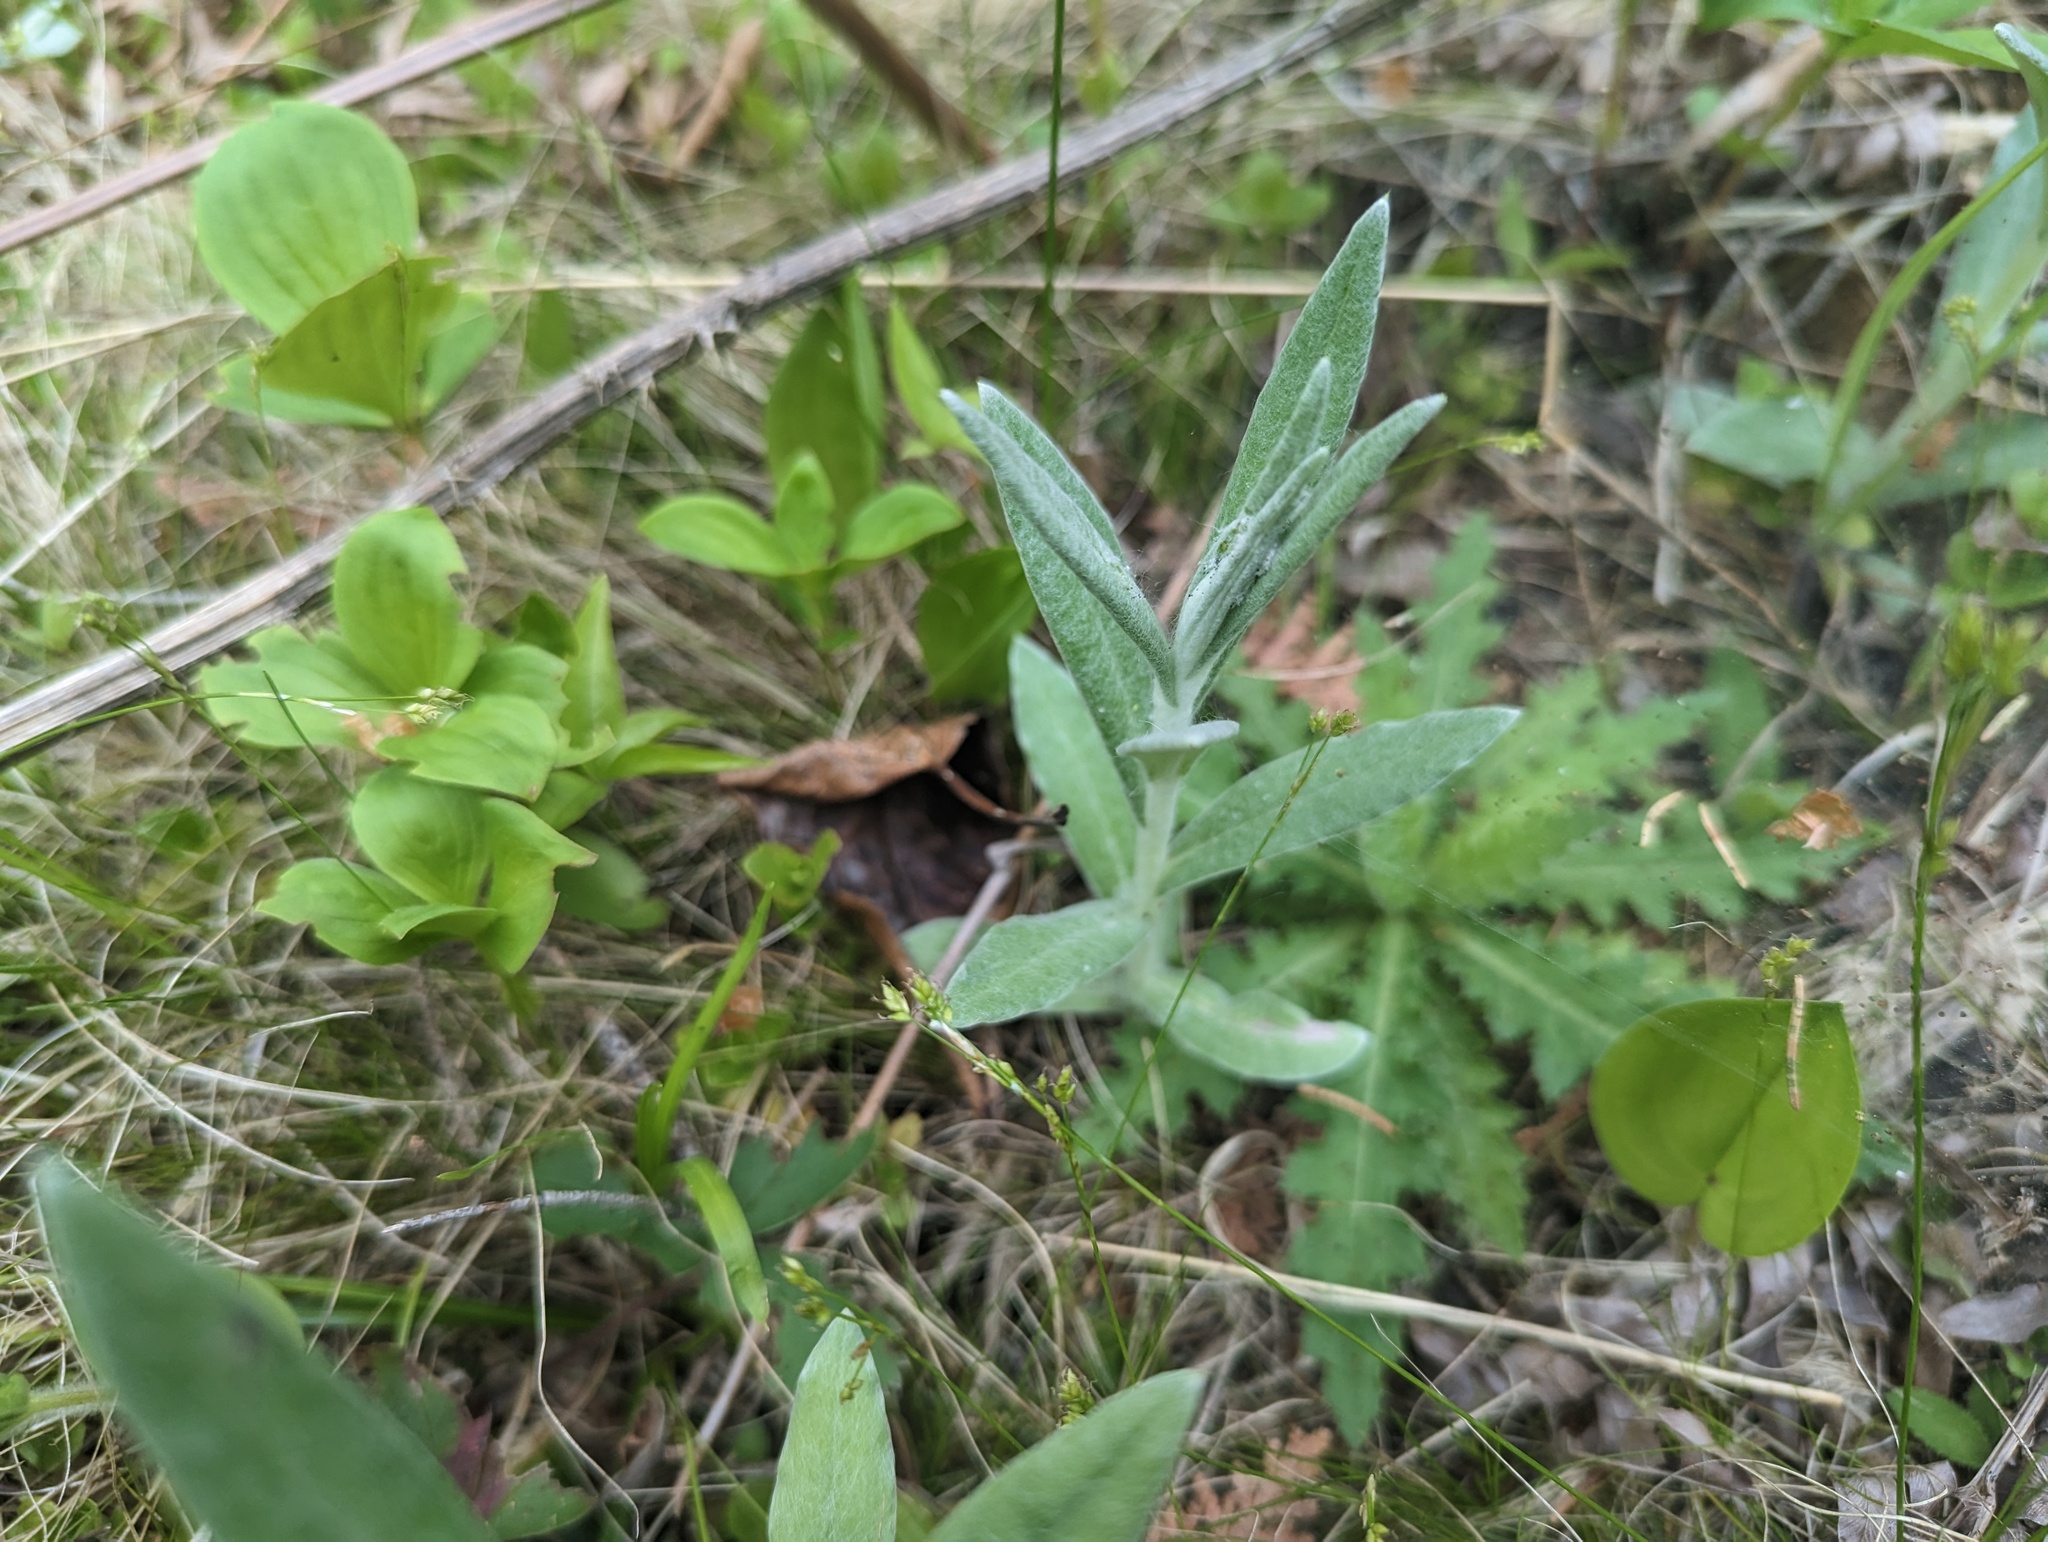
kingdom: Plantae
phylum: Tracheophyta
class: Magnoliopsida
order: Asterales
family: Asteraceae
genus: Anaphalis
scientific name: Anaphalis margaritacea
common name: Pearly everlasting
